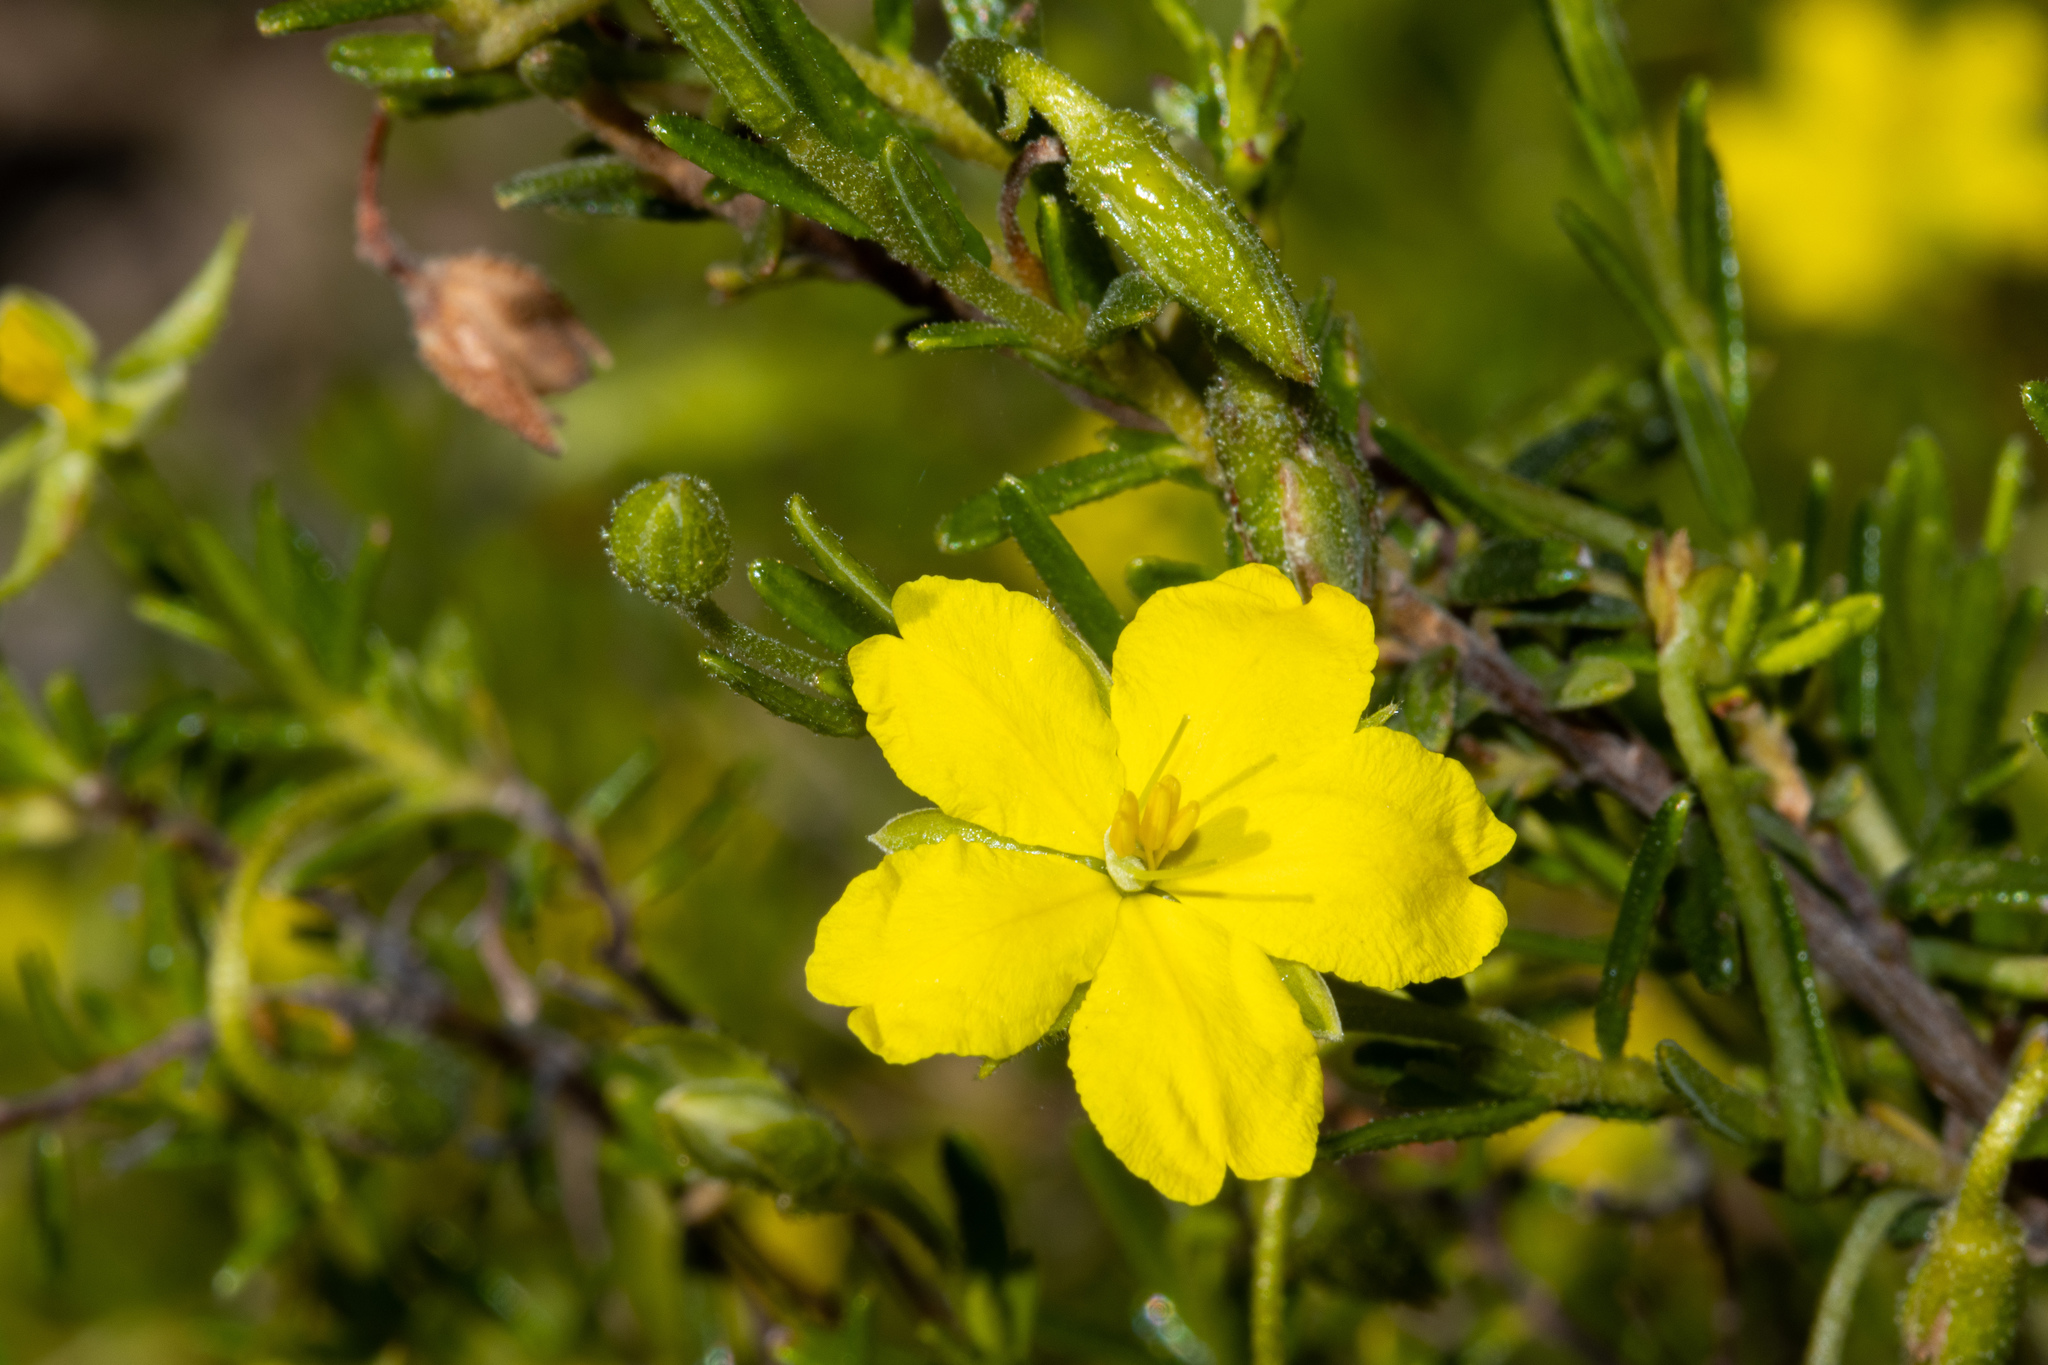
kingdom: Plantae
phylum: Tracheophyta
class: Magnoliopsida
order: Dilleniales
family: Dilleniaceae
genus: Hibbertia
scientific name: Hibbertia glebosa
